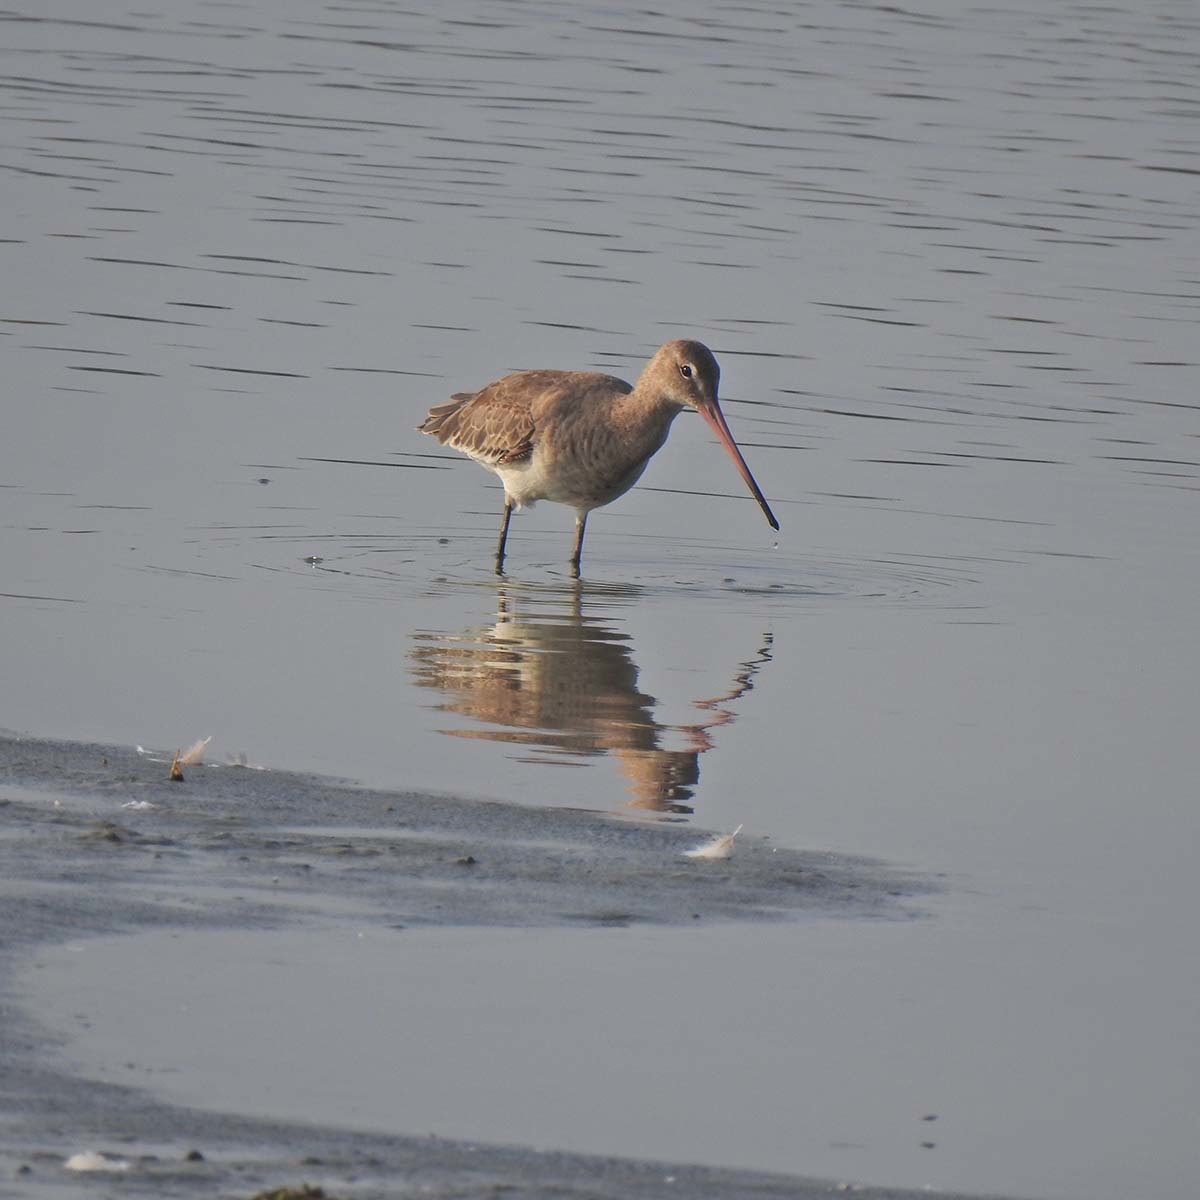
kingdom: Animalia
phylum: Chordata
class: Aves
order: Charadriiformes
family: Scolopacidae
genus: Limosa
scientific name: Limosa limosa
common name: Black-tailed godwit
